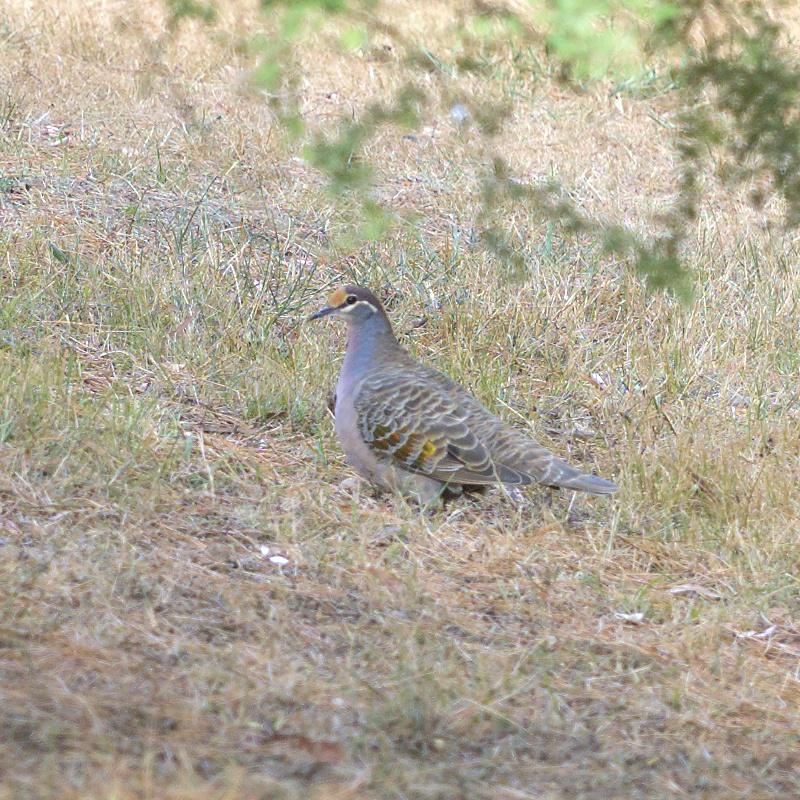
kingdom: Animalia
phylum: Chordata
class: Aves
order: Columbiformes
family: Columbidae
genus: Phaps
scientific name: Phaps chalcoptera
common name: Common bronzewing
